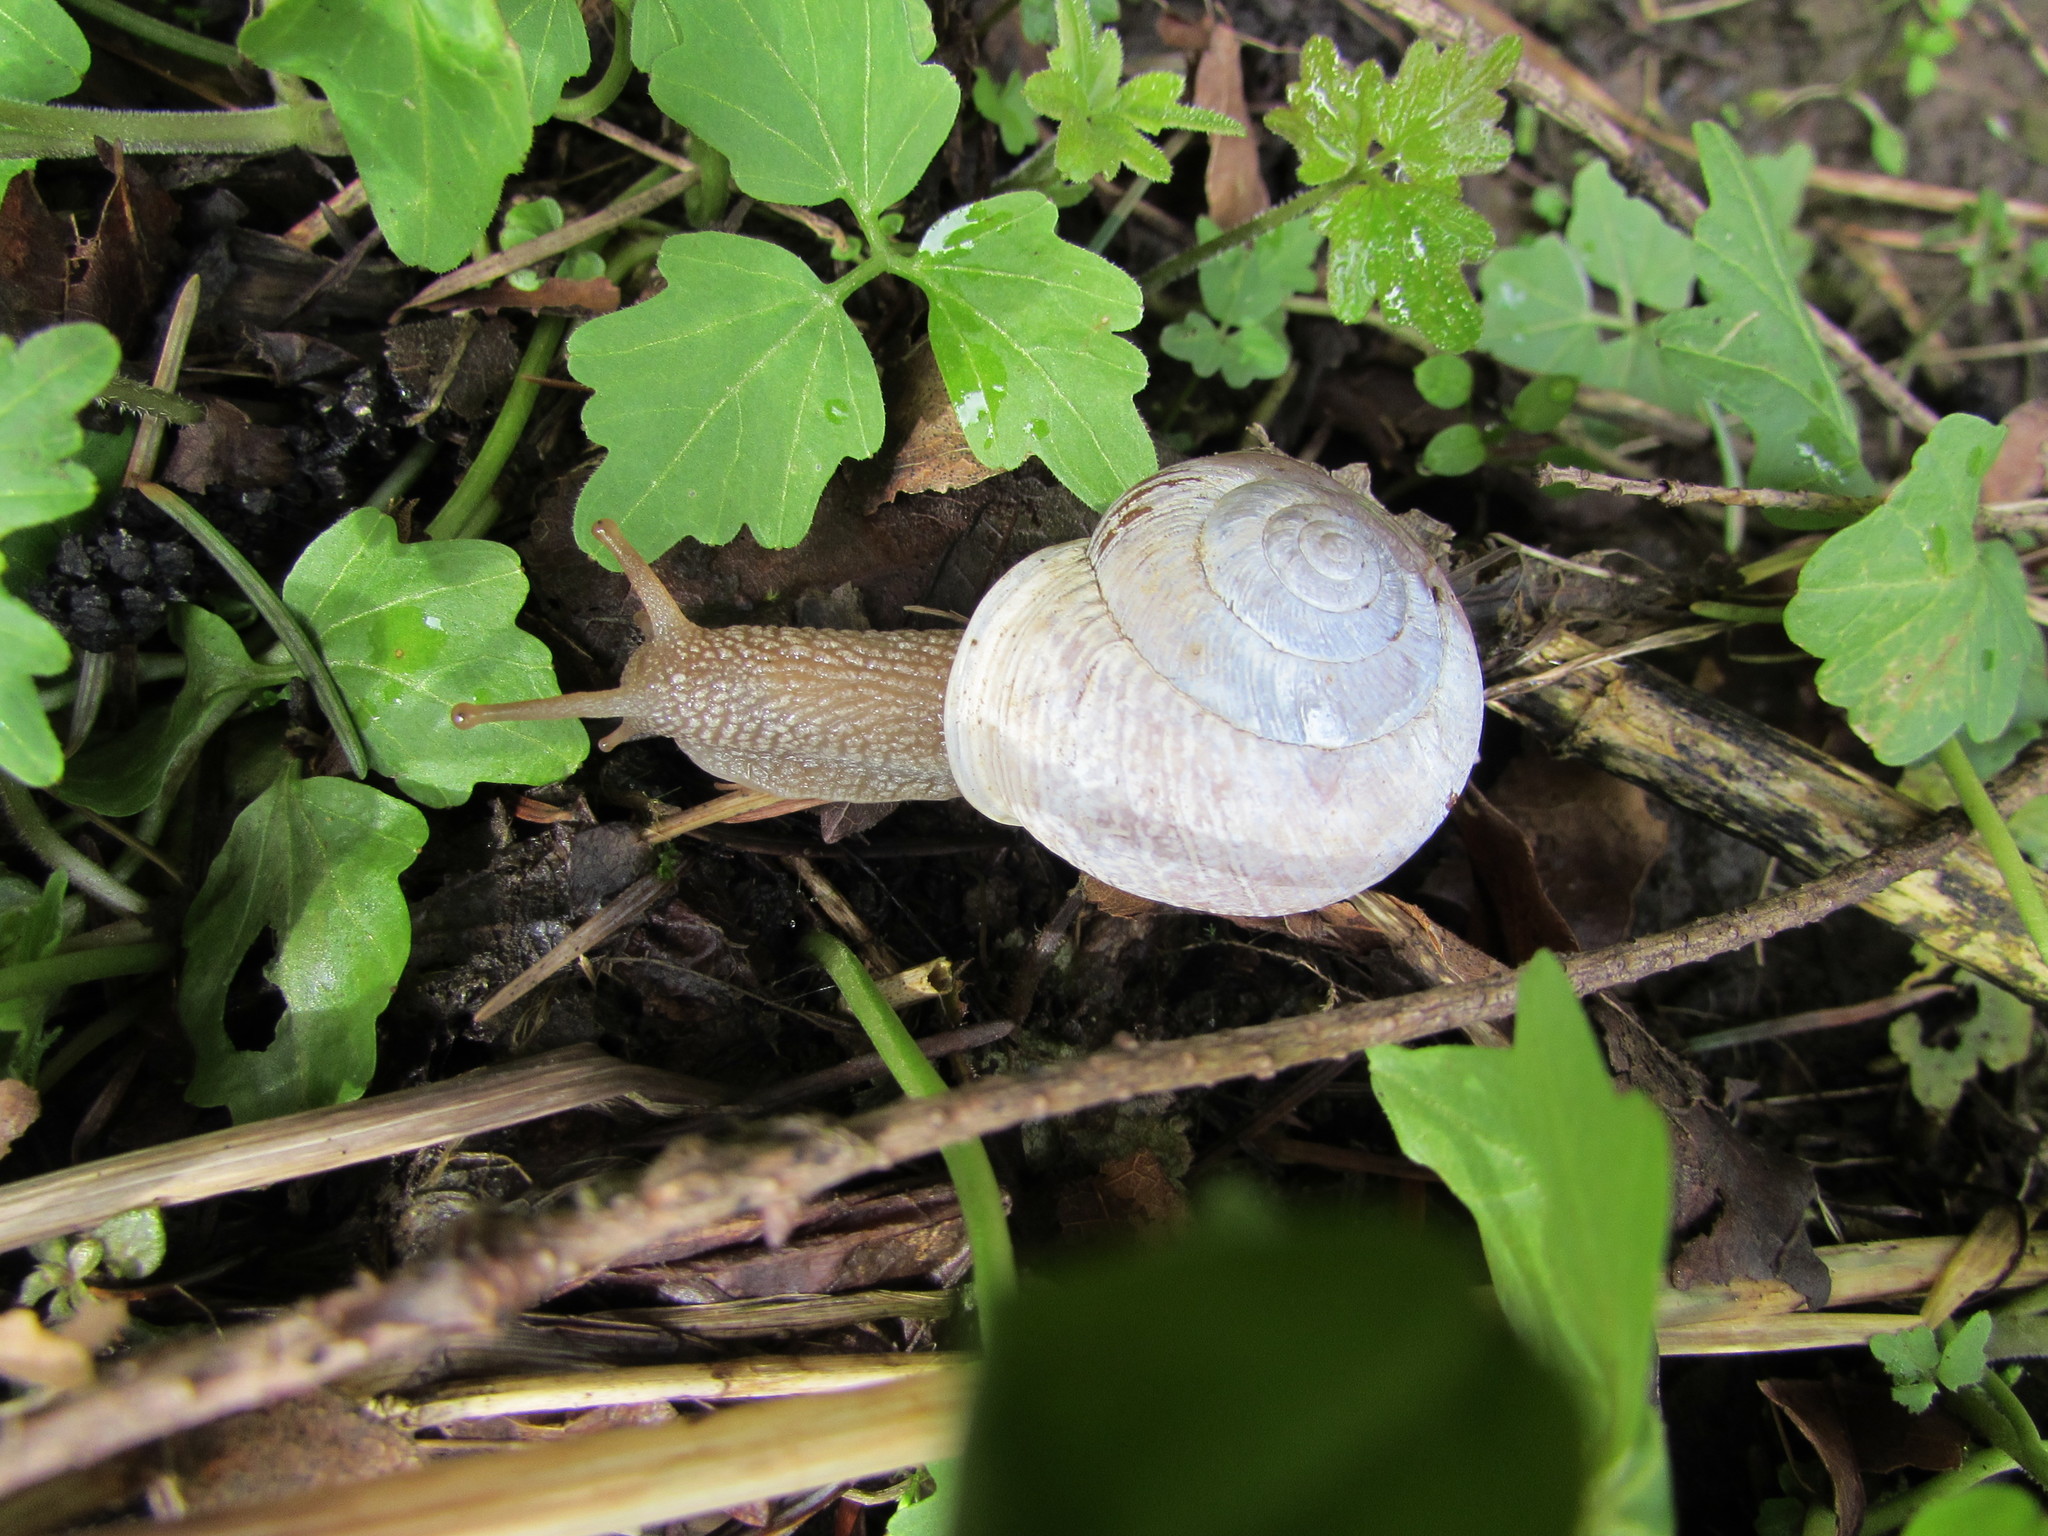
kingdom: Animalia
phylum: Mollusca
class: Gastropoda
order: Stylommatophora
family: Polygyridae
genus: Allogona
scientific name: Allogona townsendiana
